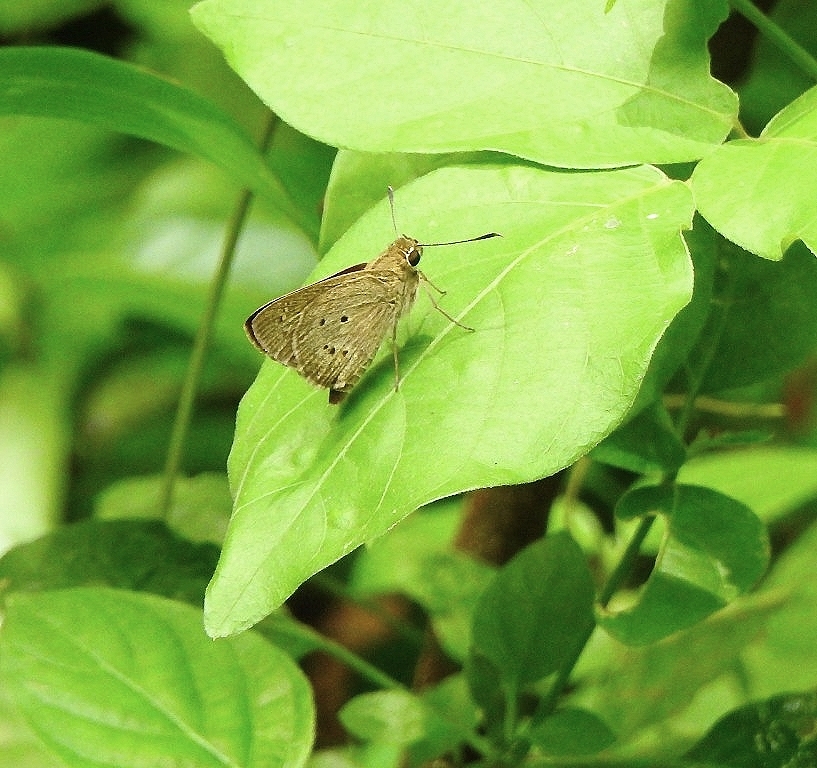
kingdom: Animalia
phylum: Arthropoda
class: Insecta
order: Lepidoptera
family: Hesperiidae
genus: Suastus
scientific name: Suastus gremius
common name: Indian palm bob
